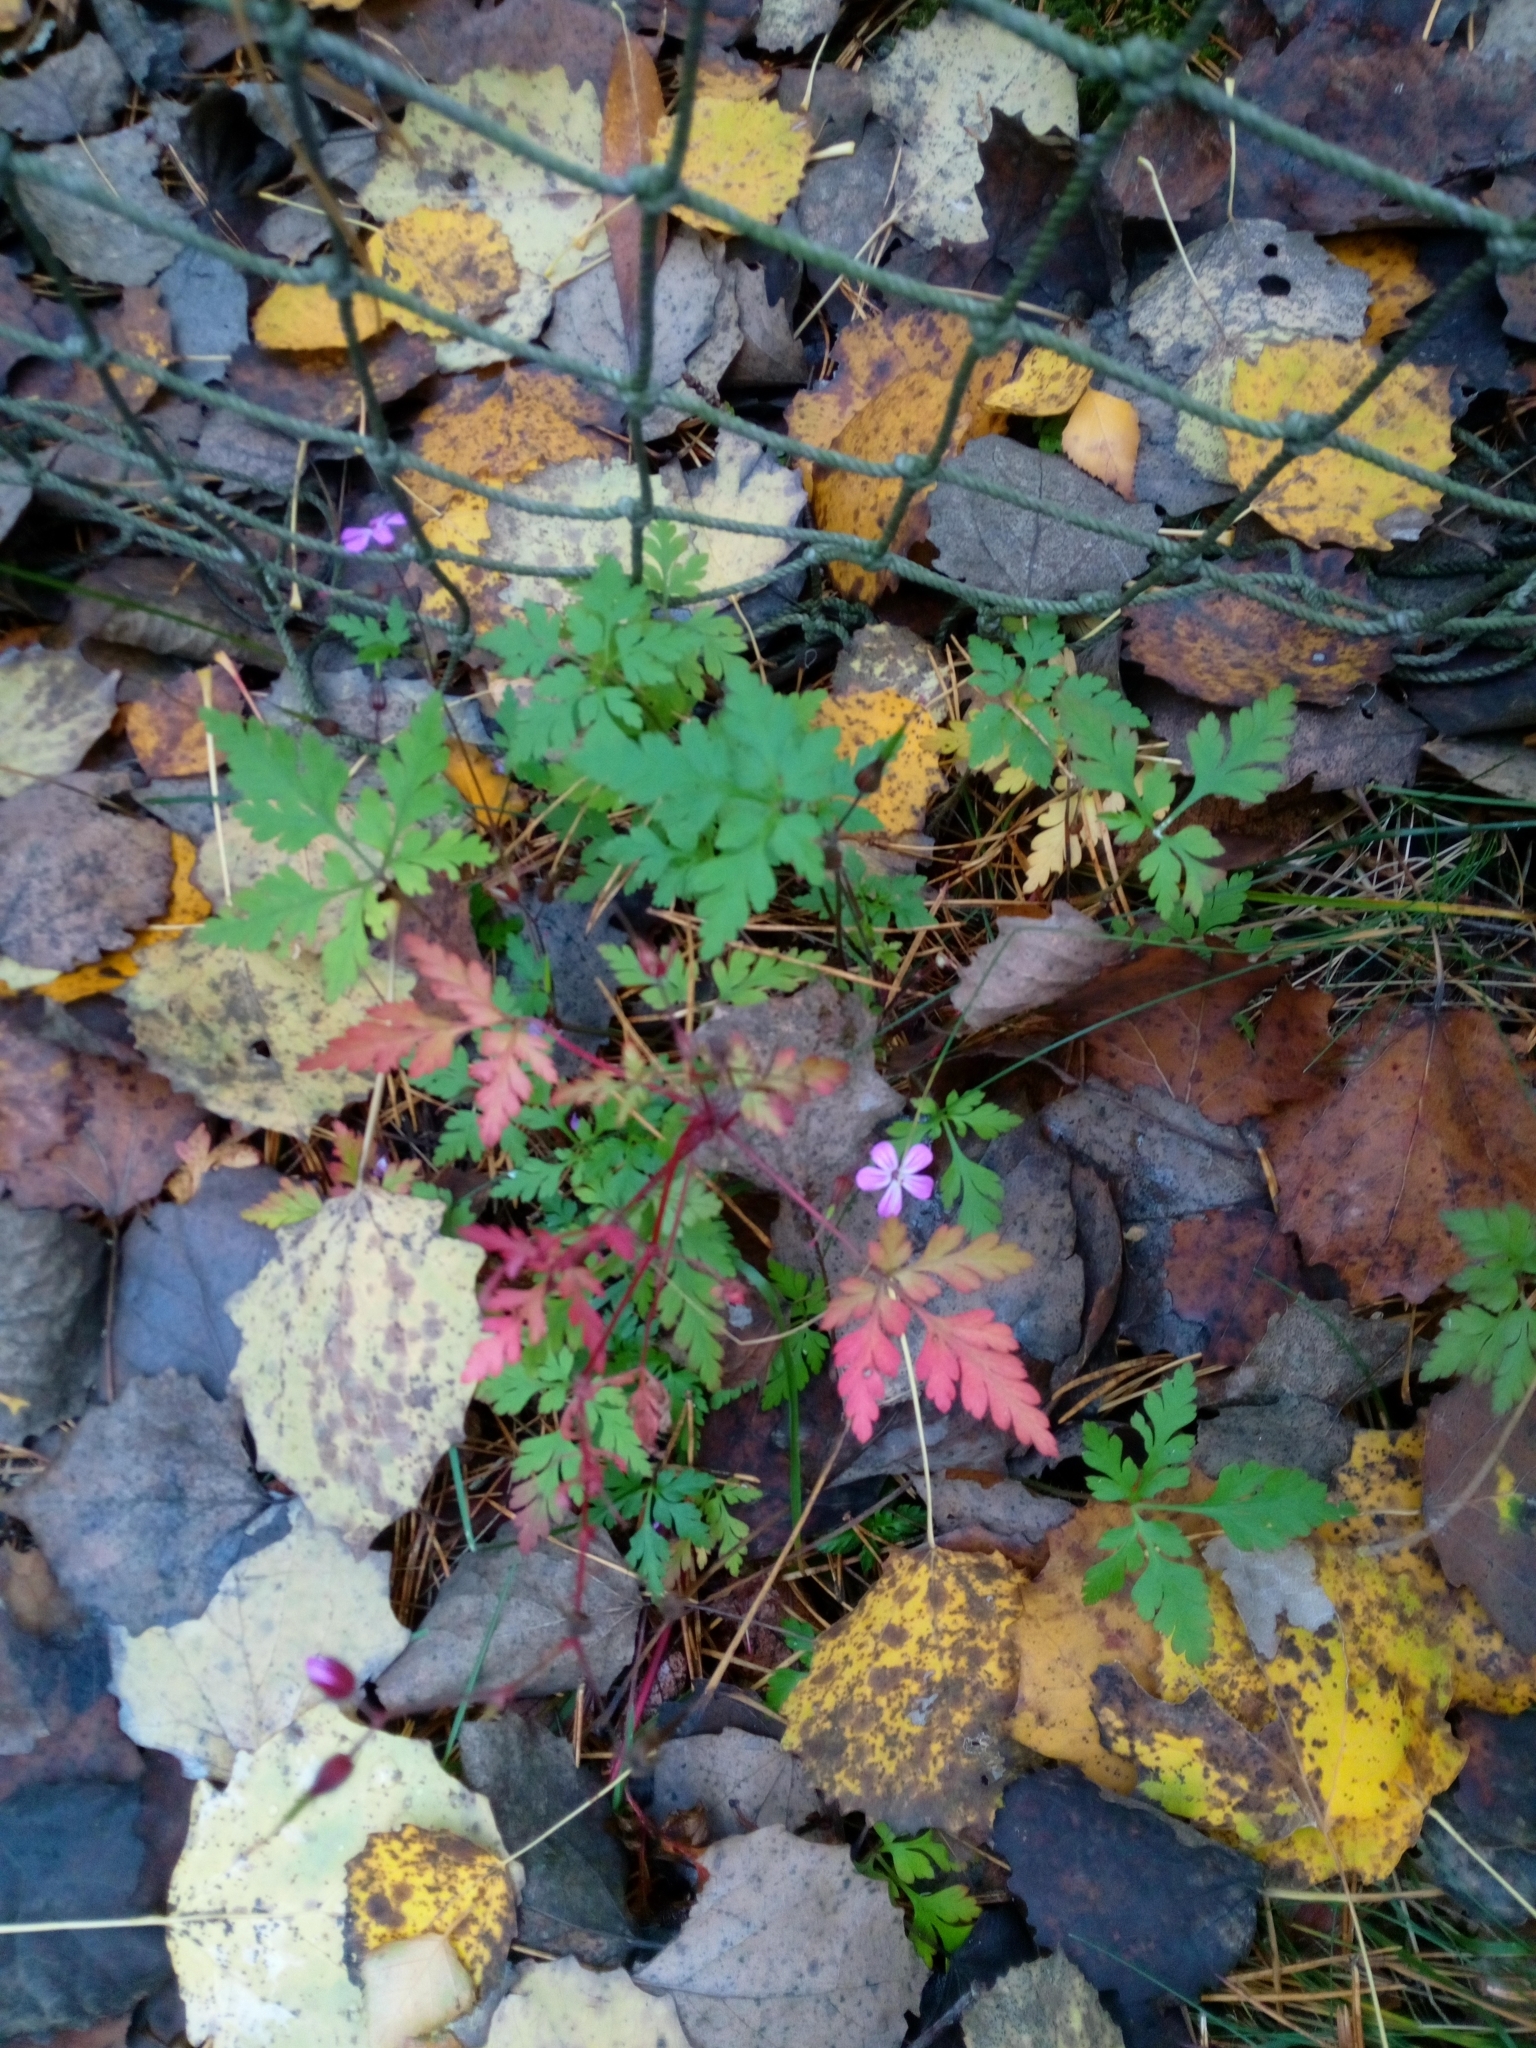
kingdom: Plantae
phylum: Tracheophyta
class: Magnoliopsida
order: Geraniales
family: Geraniaceae
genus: Geranium
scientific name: Geranium robertianum
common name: Herb-robert
